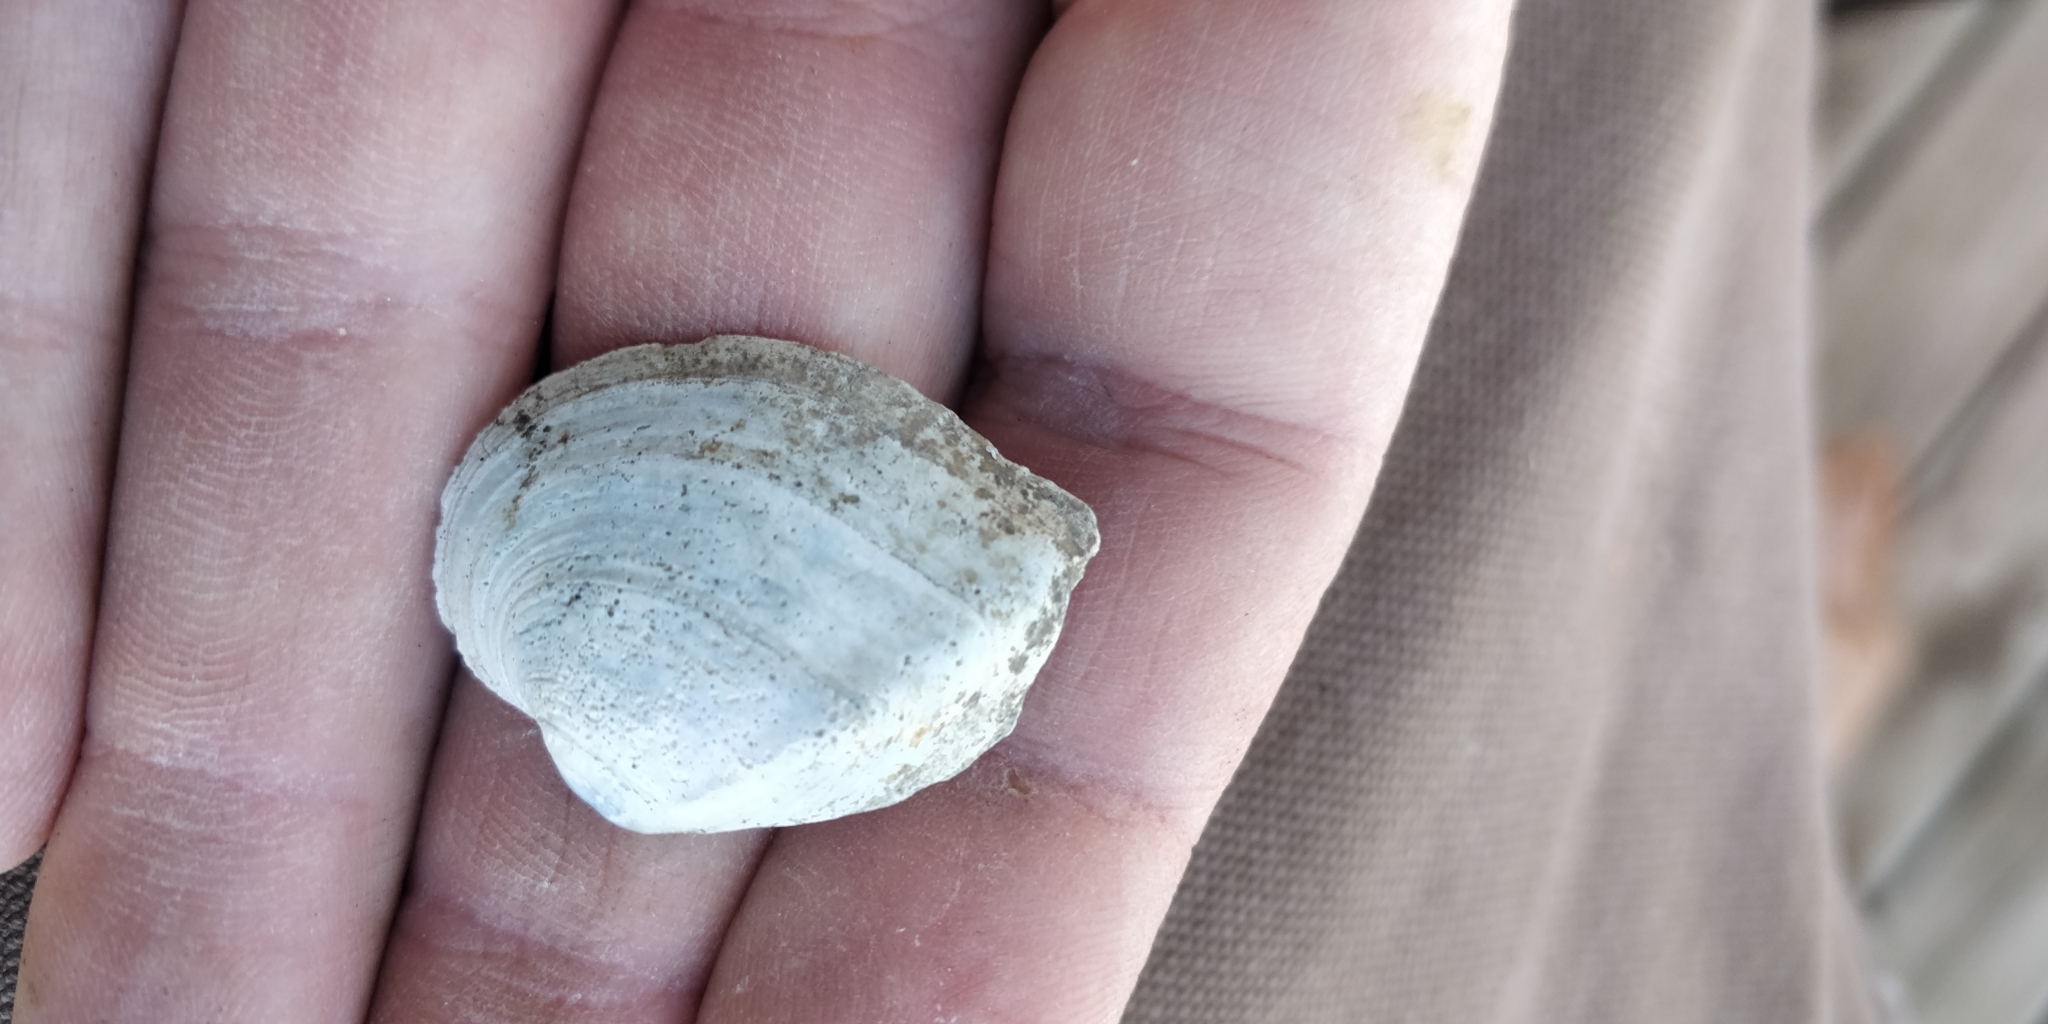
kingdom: Animalia
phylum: Mollusca
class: Bivalvia
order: Unionida
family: Unionidae
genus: Truncilla
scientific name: Truncilla truncata
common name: Deertoe
